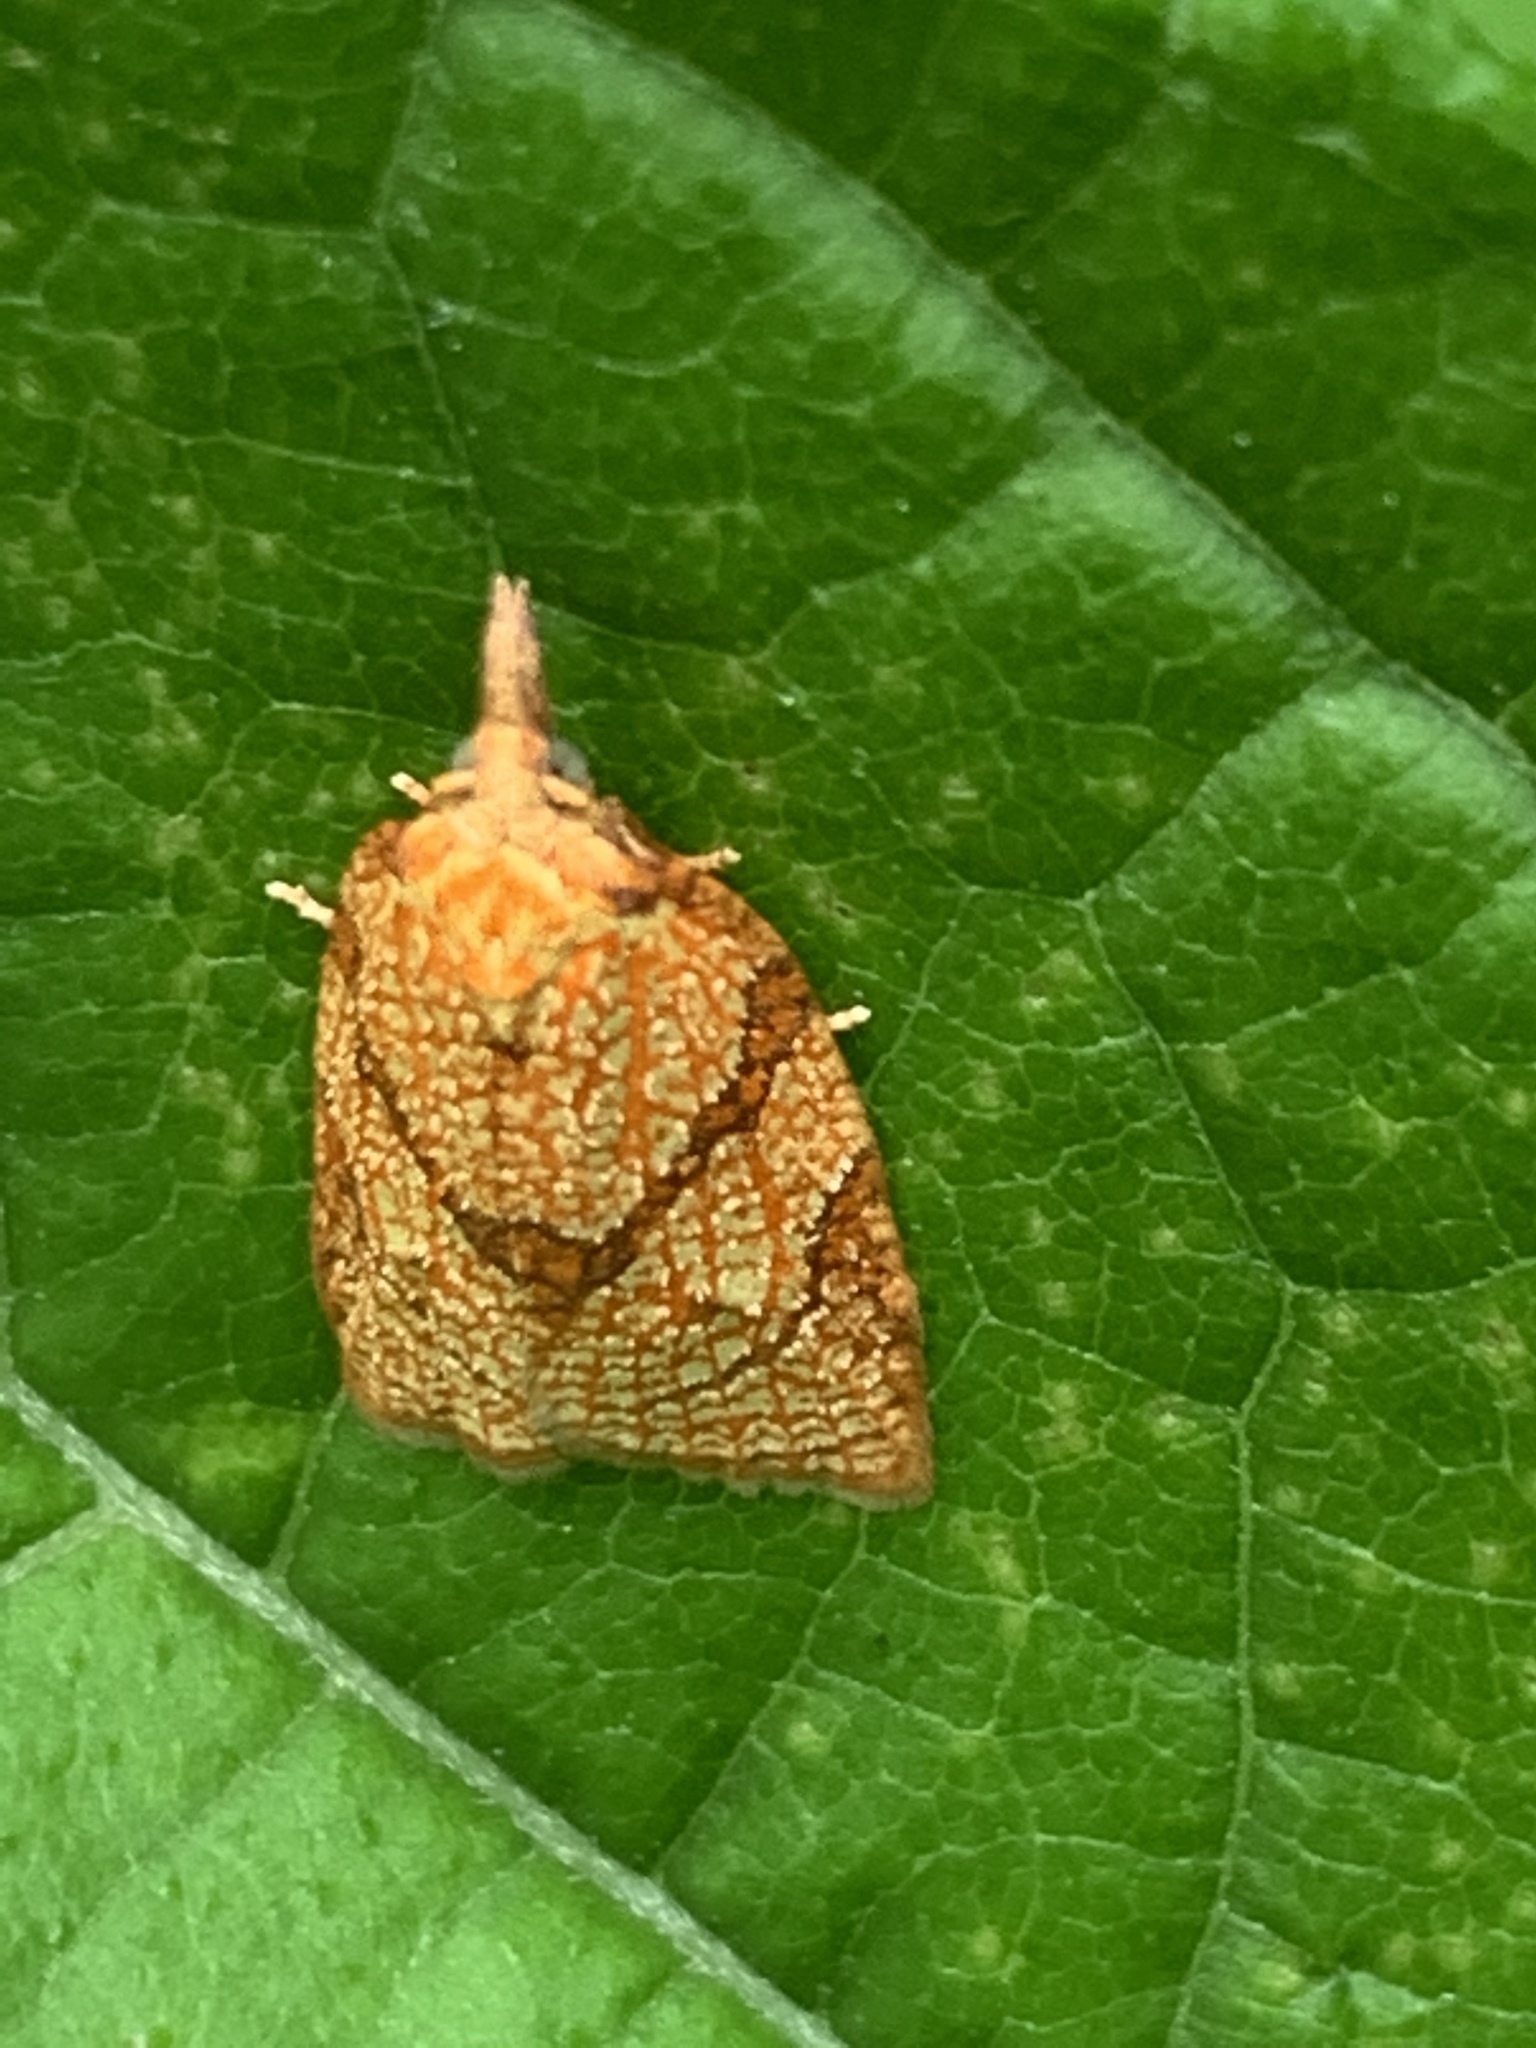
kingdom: Animalia
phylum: Arthropoda
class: Insecta
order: Lepidoptera
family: Tortricidae
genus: Cenopis
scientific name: Cenopis reticulatana
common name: Reticulated fruitworm moth
